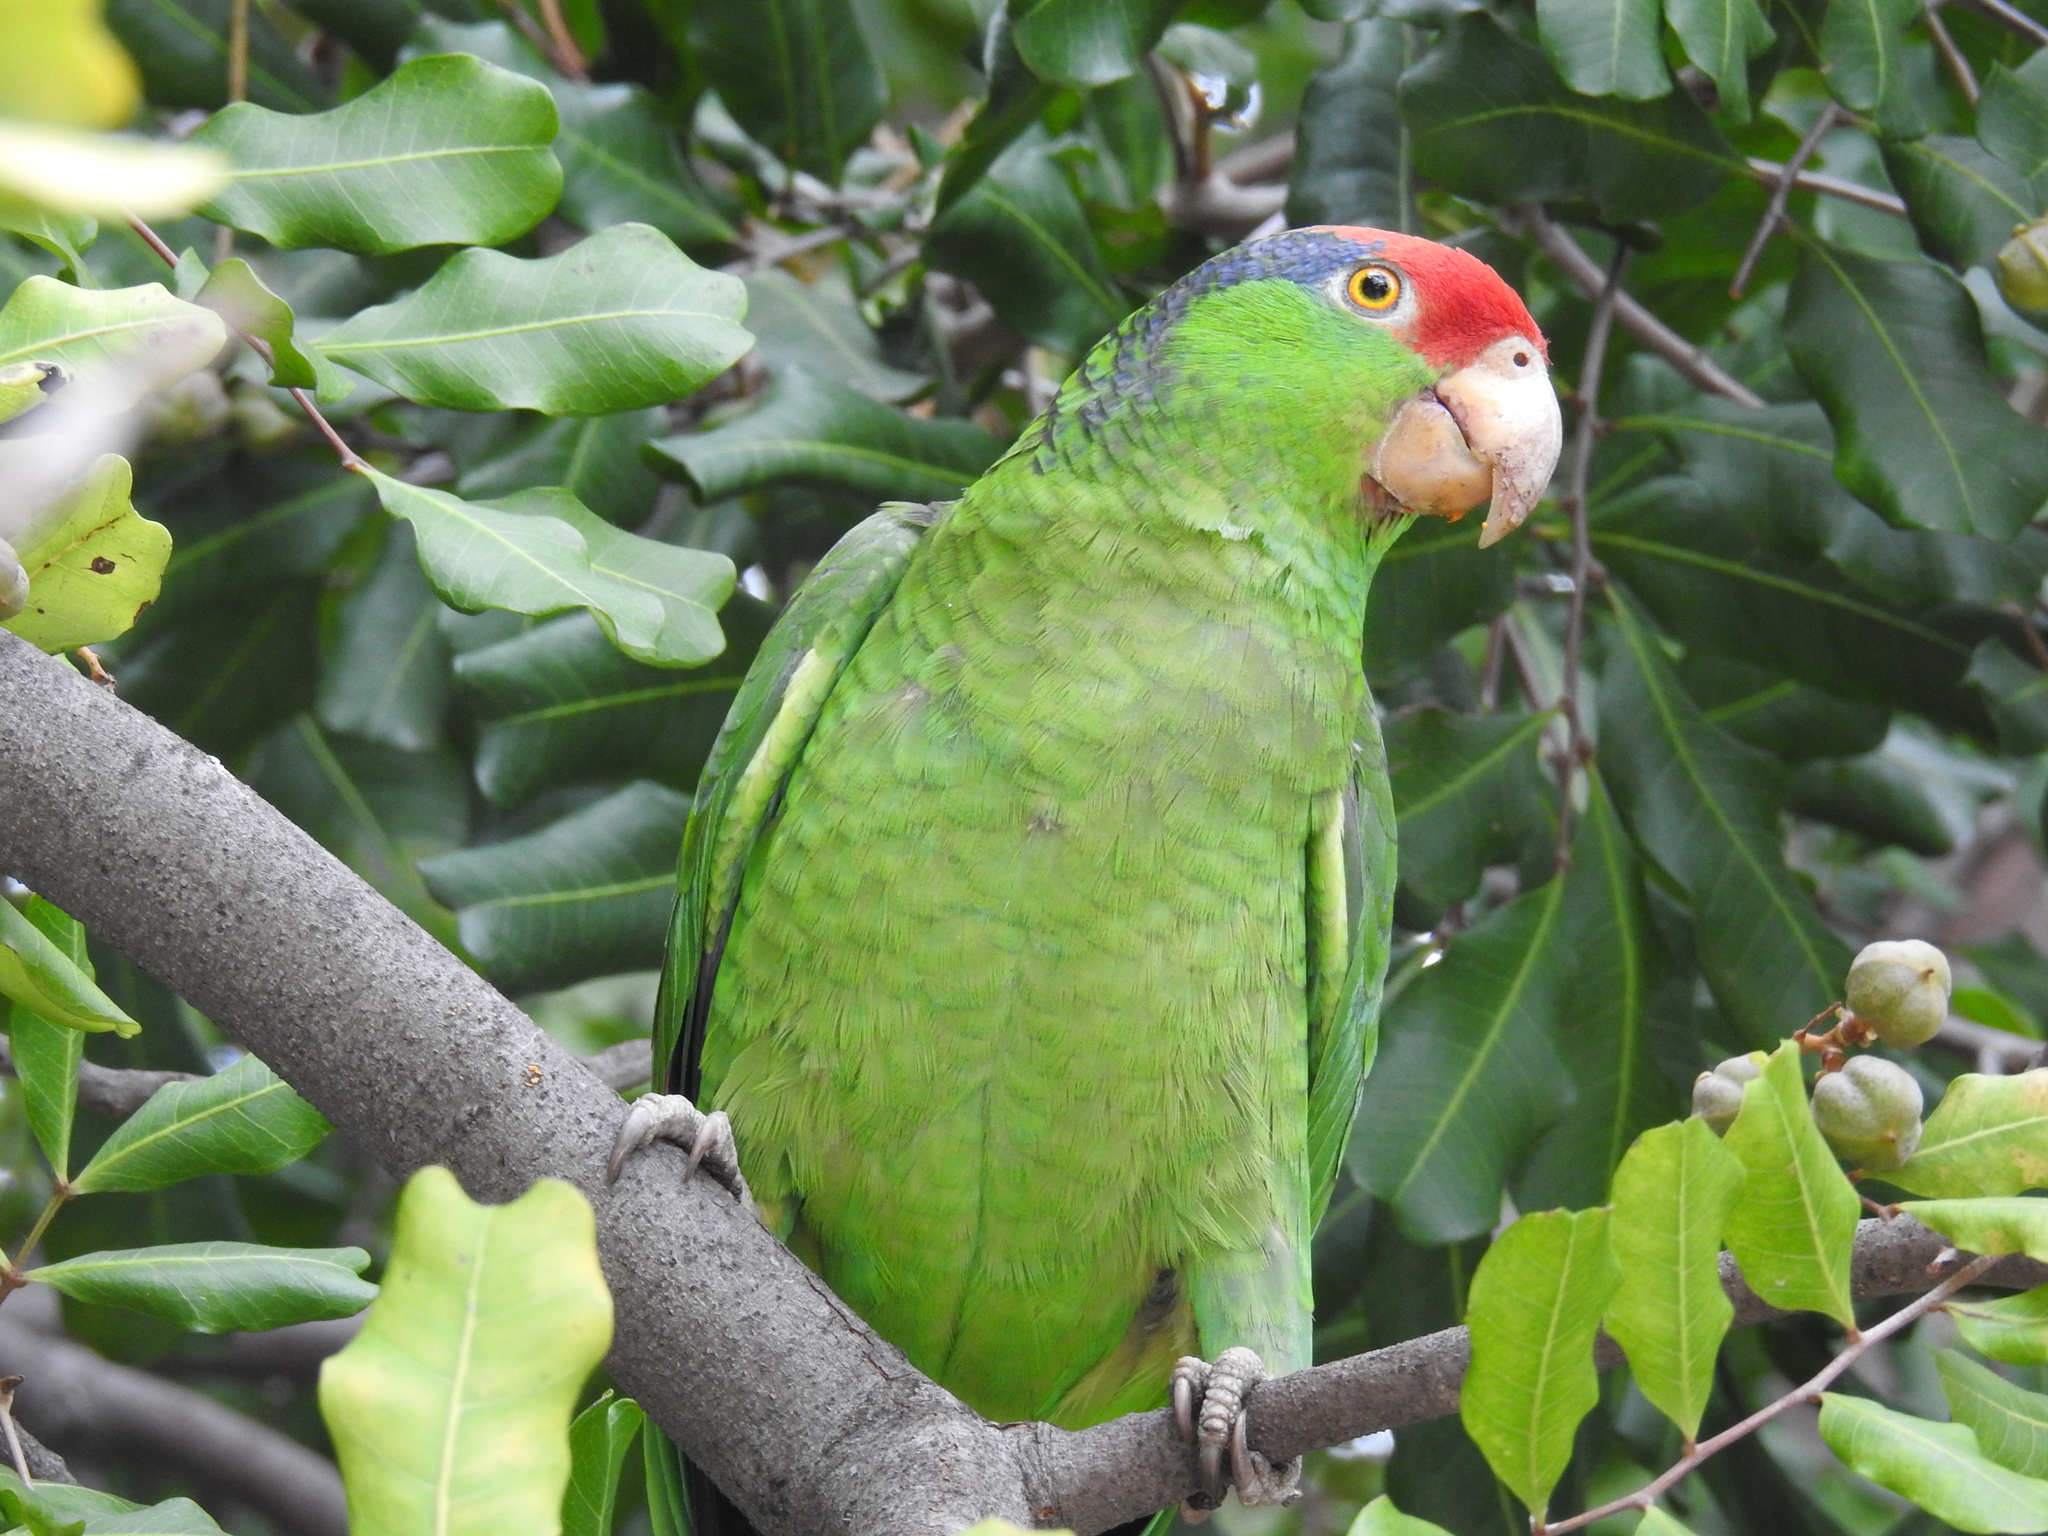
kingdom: Animalia
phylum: Chordata
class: Aves
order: Psittaciformes
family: Psittacidae
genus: Amazona
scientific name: Amazona viridigenalis
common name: Red-crowned amazon
